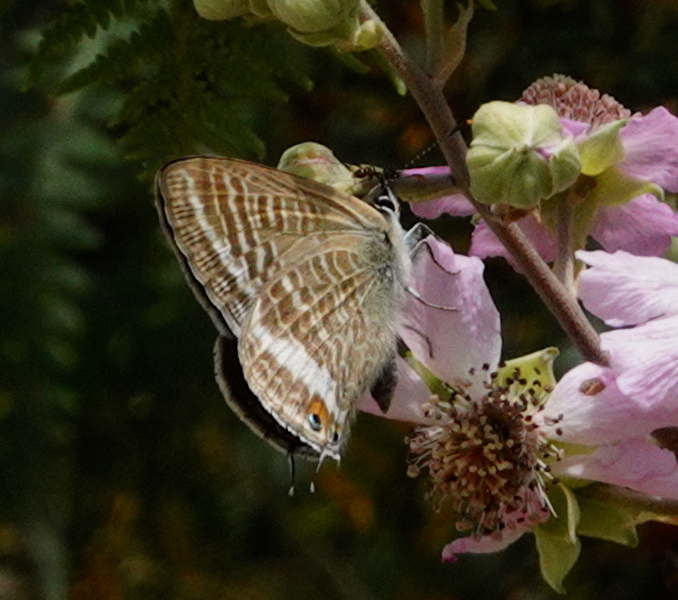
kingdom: Animalia
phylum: Arthropoda
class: Insecta
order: Lepidoptera
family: Lycaenidae
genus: Lampides
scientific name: Lampides boeticus
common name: Long-tailed blue
